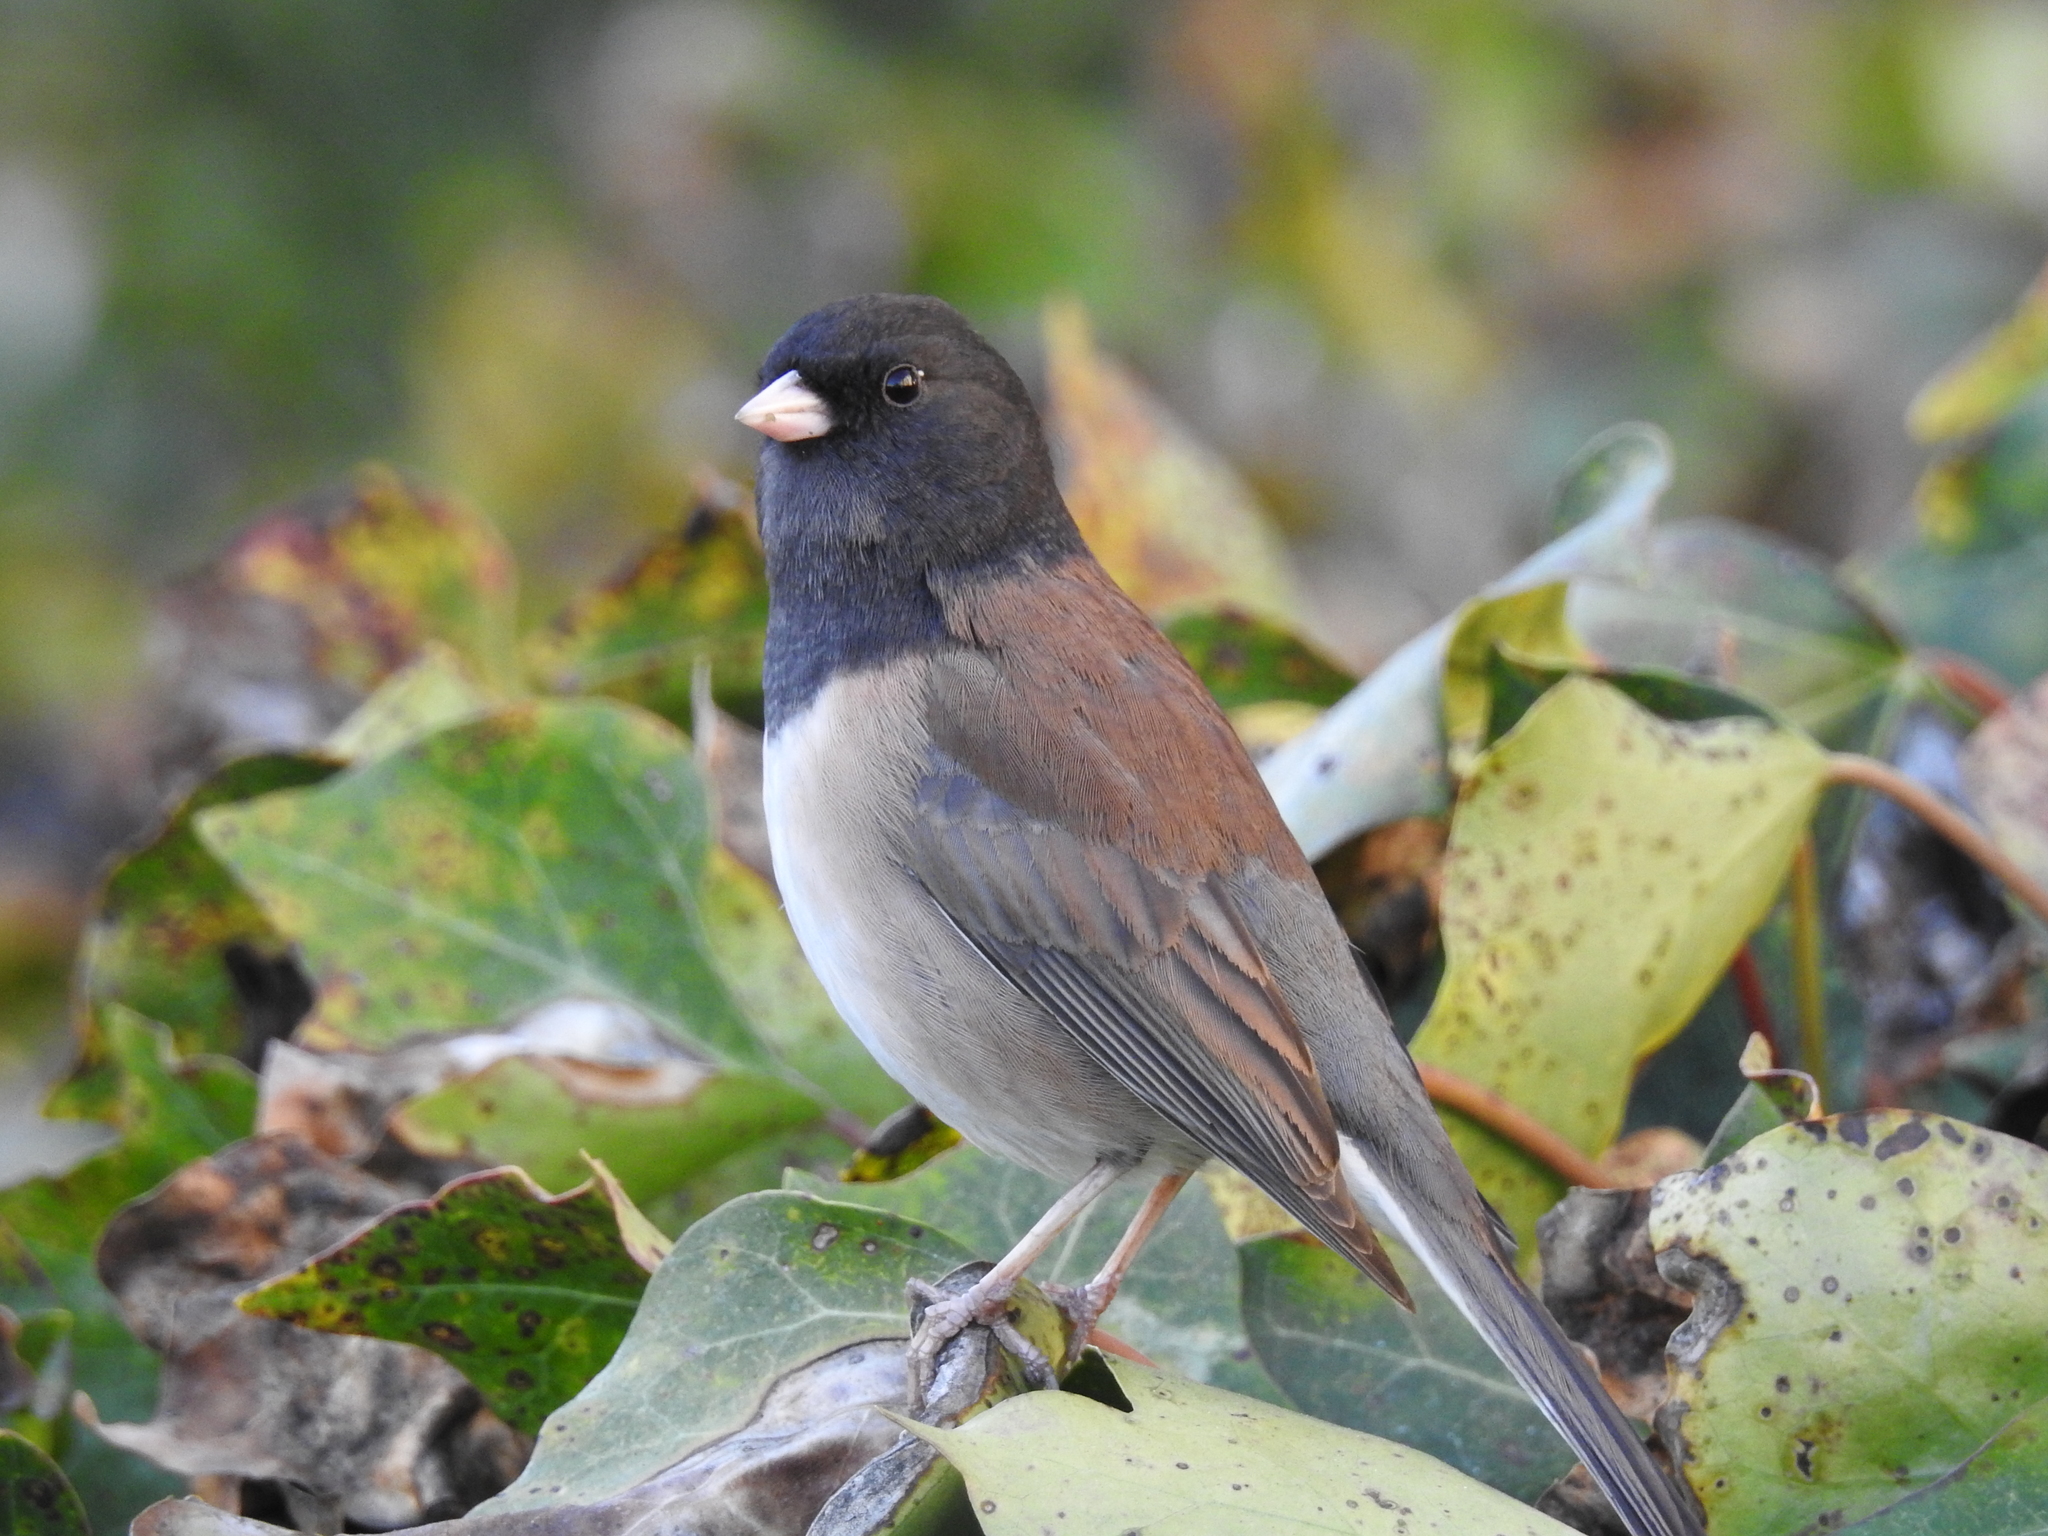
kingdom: Animalia
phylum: Chordata
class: Aves
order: Passeriformes
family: Passerellidae
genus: Junco
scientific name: Junco hyemalis
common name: Dark-eyed junco
